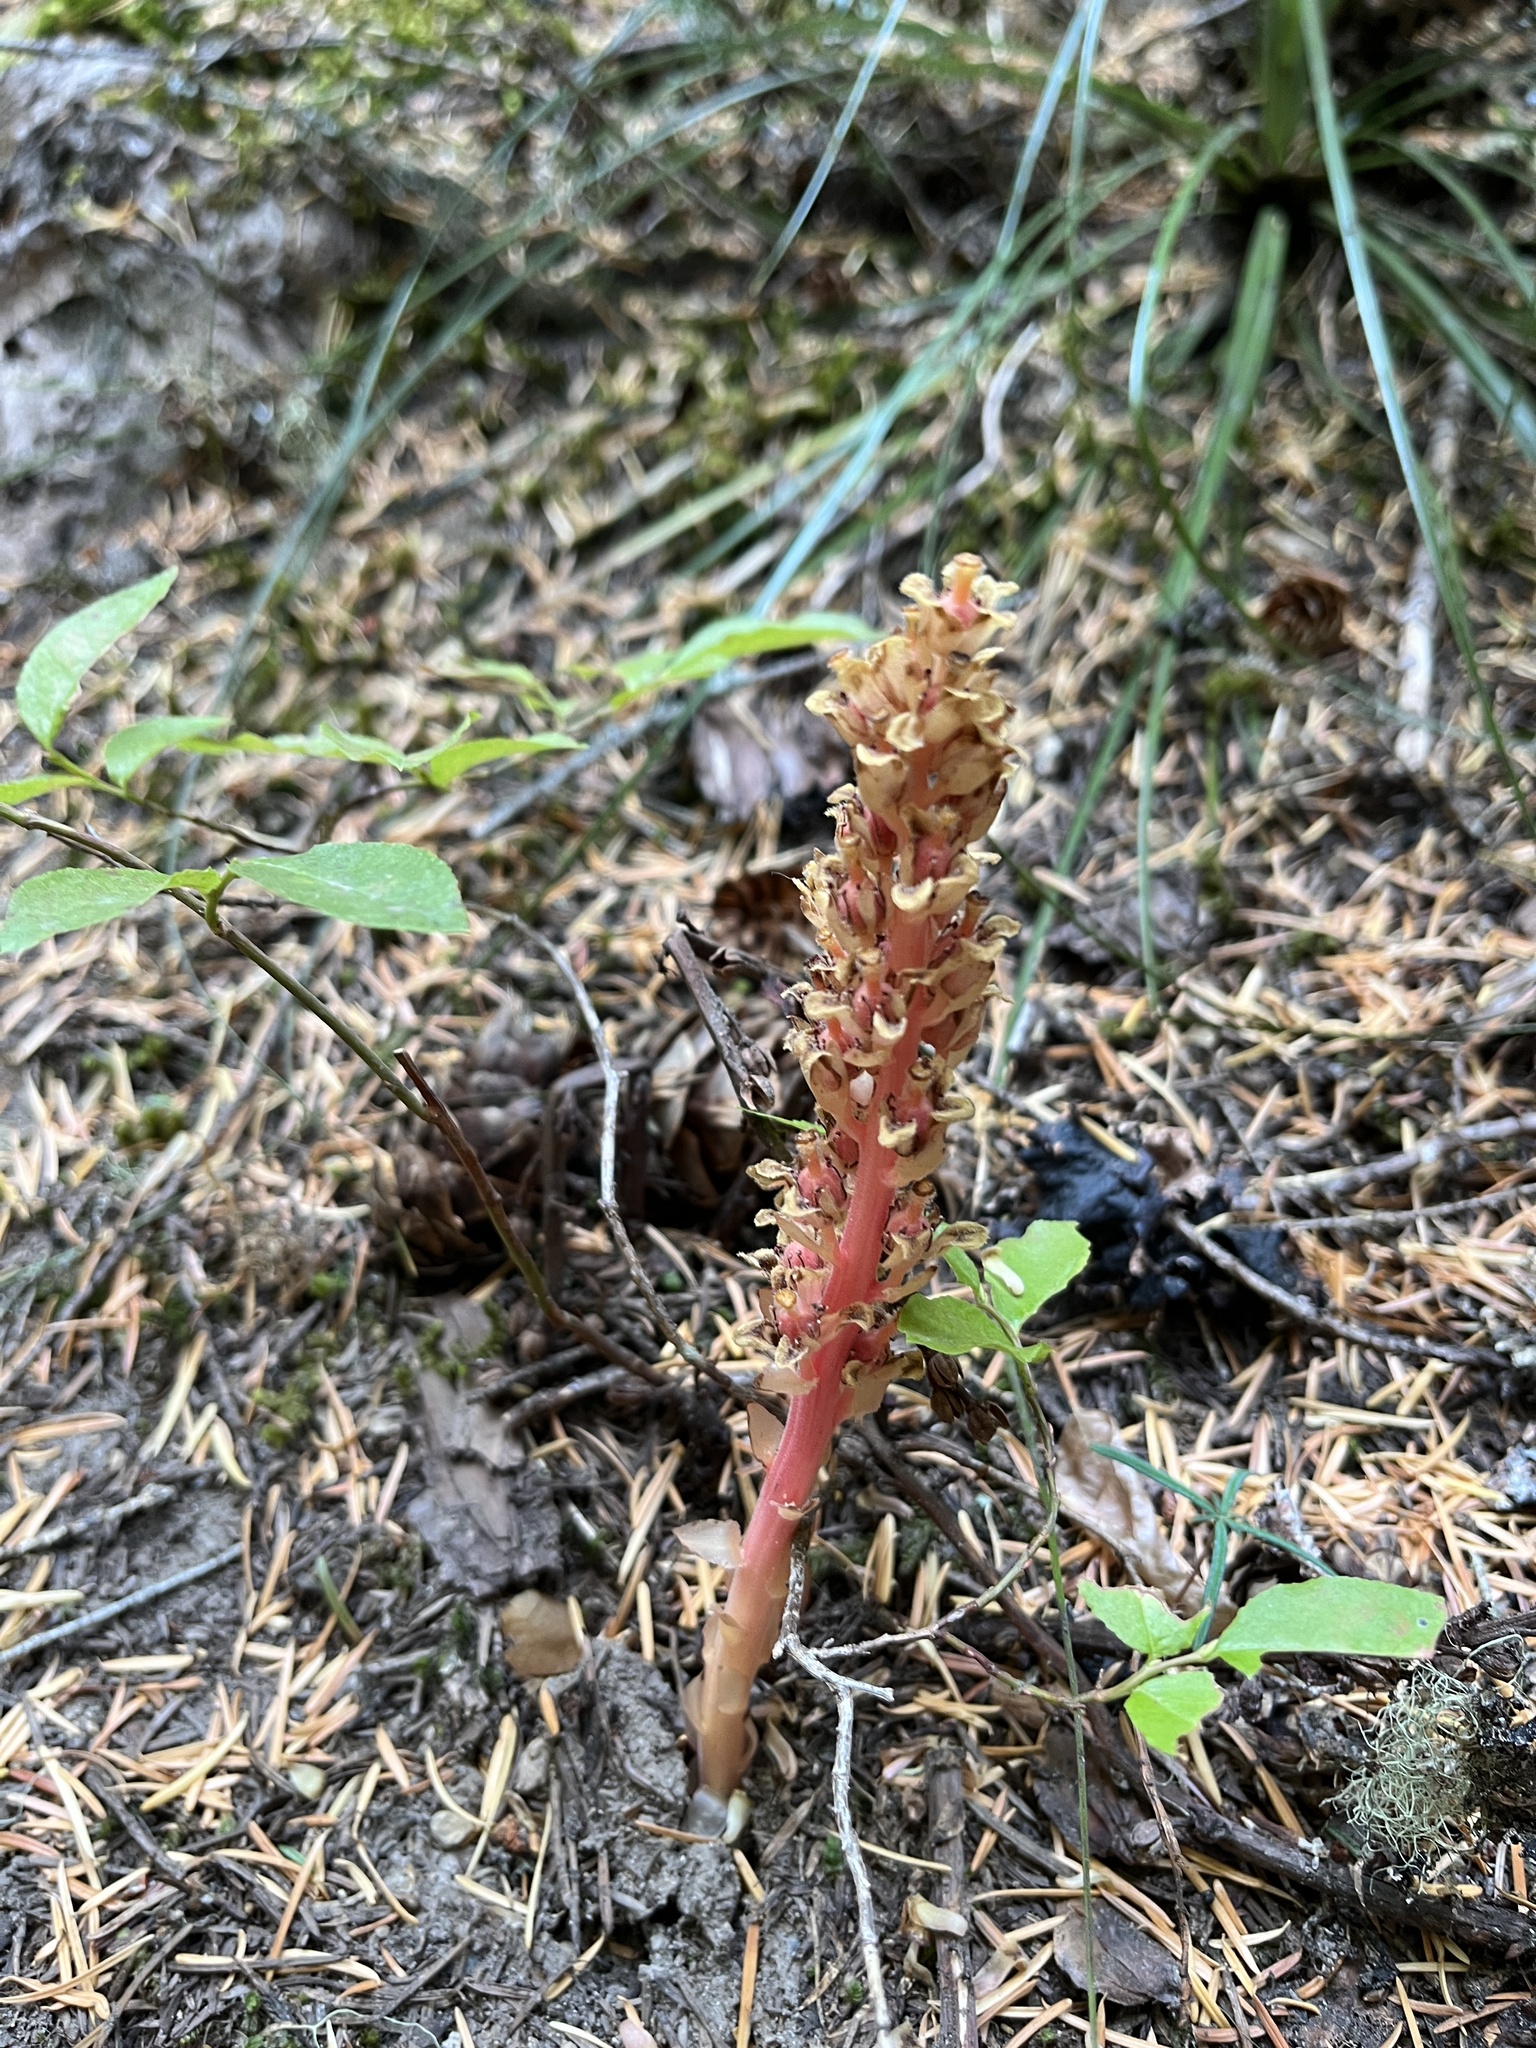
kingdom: Plantae
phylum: Tracheophyta
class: Magnoliopsida
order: Ericales
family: Ericaceae
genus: Hypopitys
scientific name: Hypopitys monotropa
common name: Yellow bird's-nest
